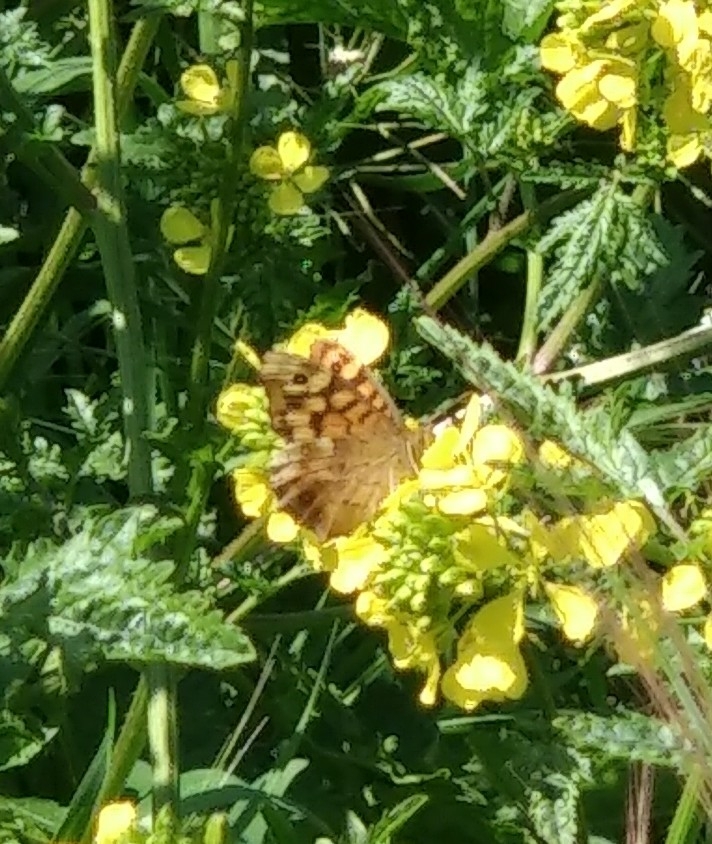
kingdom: Animalia
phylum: Arthropoda
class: Insecta
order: Lepidoptera
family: Nymphalidae
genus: Pararge
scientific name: Pararge aegeria
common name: Speckled wood
